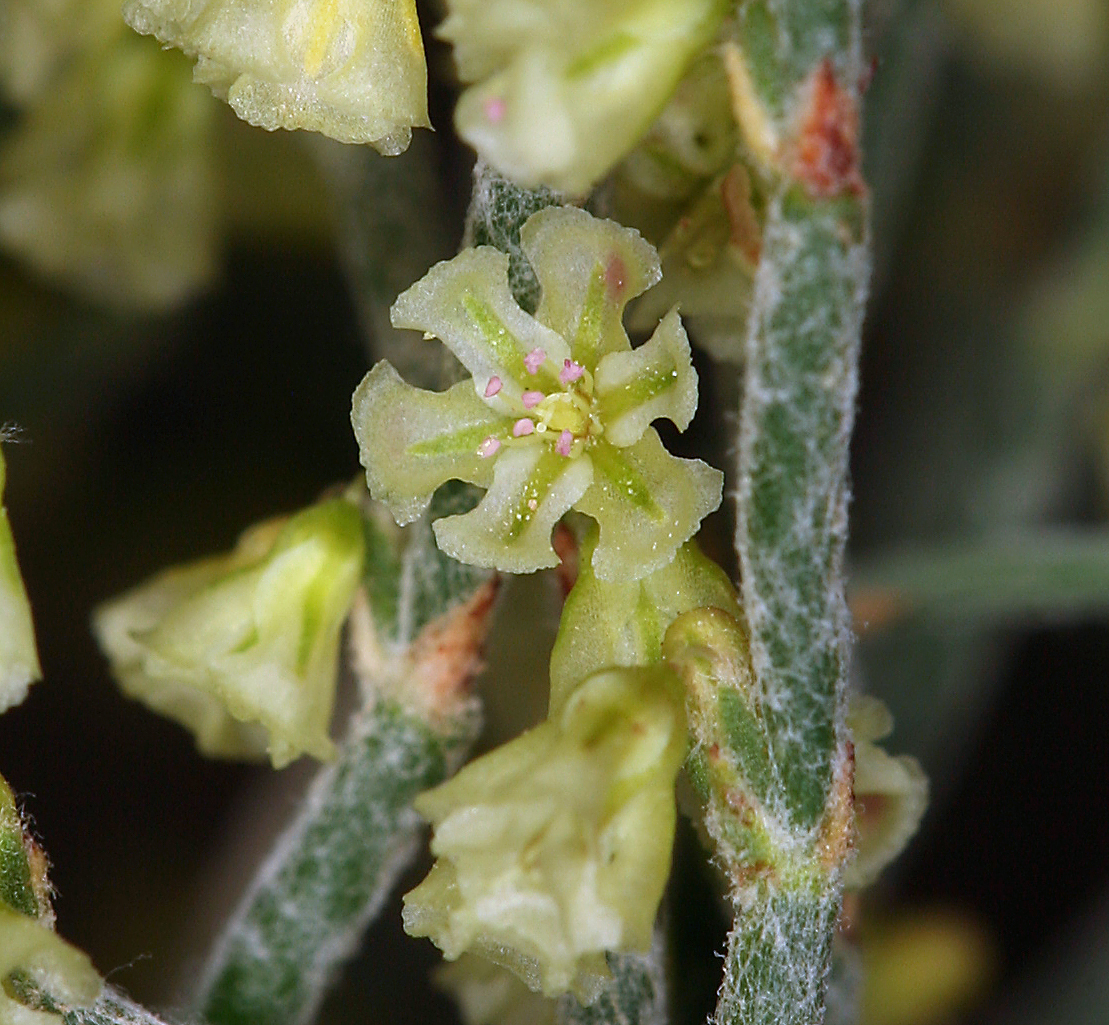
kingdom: Plantae
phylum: Tracheophyta
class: Magnoliopsida
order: Caryophyllales
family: Polygonaceae
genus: Eriogonum
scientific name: Eriogonum nidularium
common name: Bird's-nest wild buckwheat
